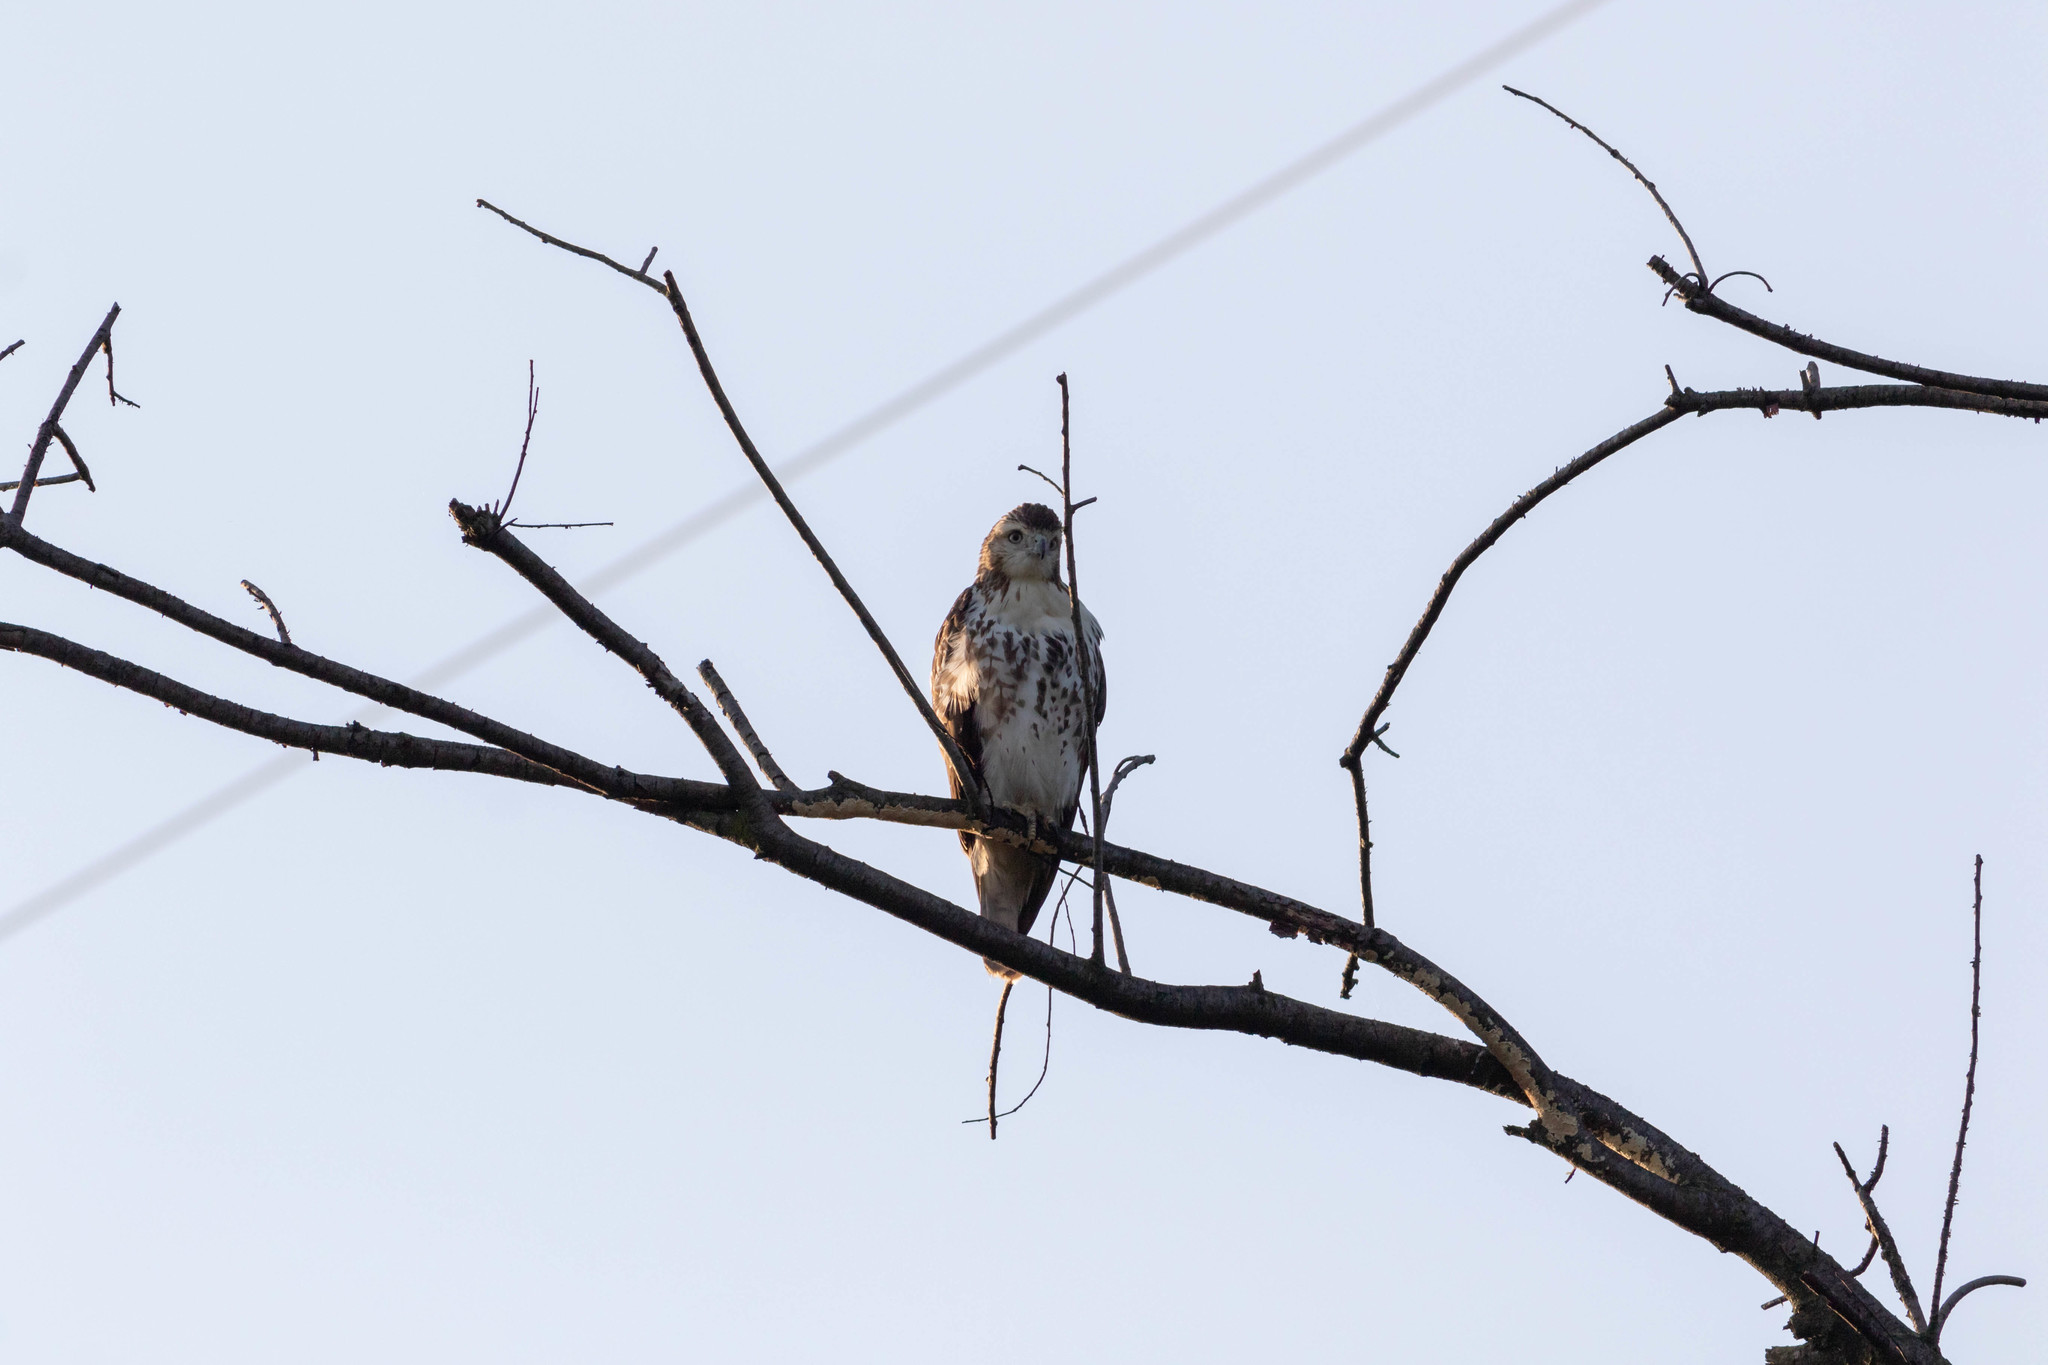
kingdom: Animalia
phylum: Chordata
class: Aves
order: Accipitriformes
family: Accipitridae
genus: Buteo
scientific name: Buteo jamaicensis
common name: Red-tailed hawk
